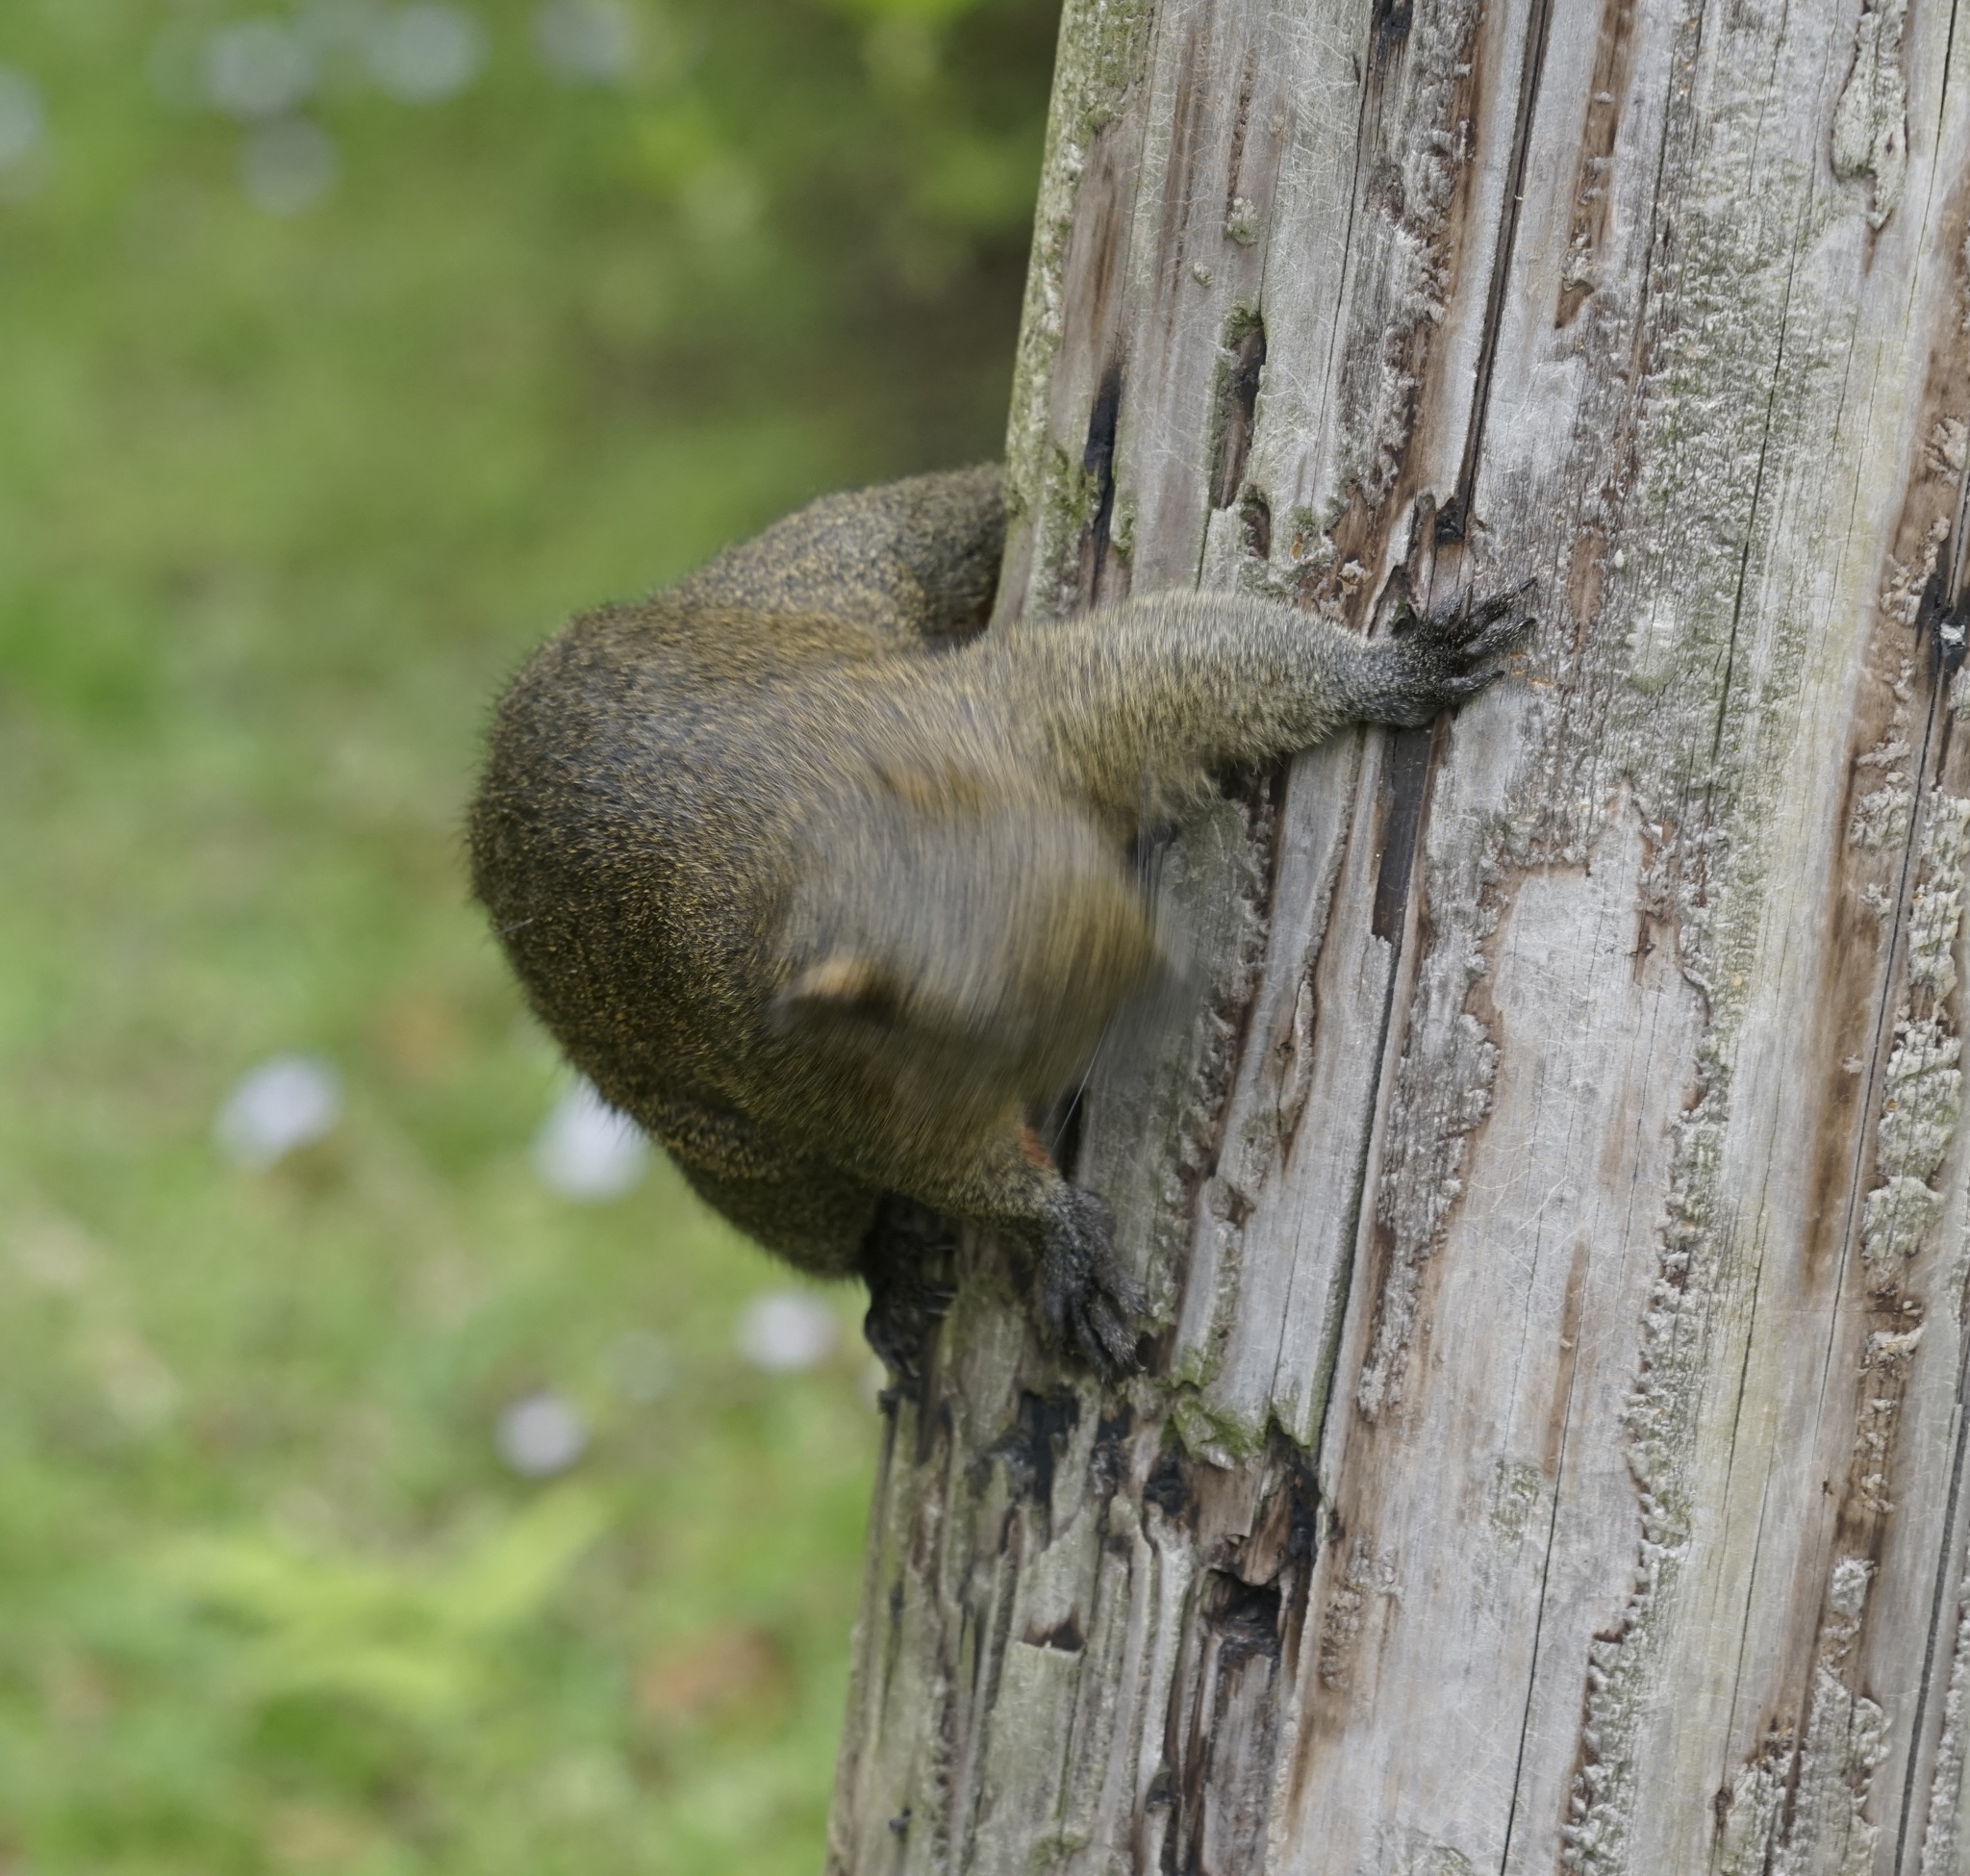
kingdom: Animalia
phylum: Chordata
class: Mammalia
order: Rodentia
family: Sciuridae
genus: Callosciurus
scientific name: Callosciurus erythraeus
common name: Pallas's squirrel
